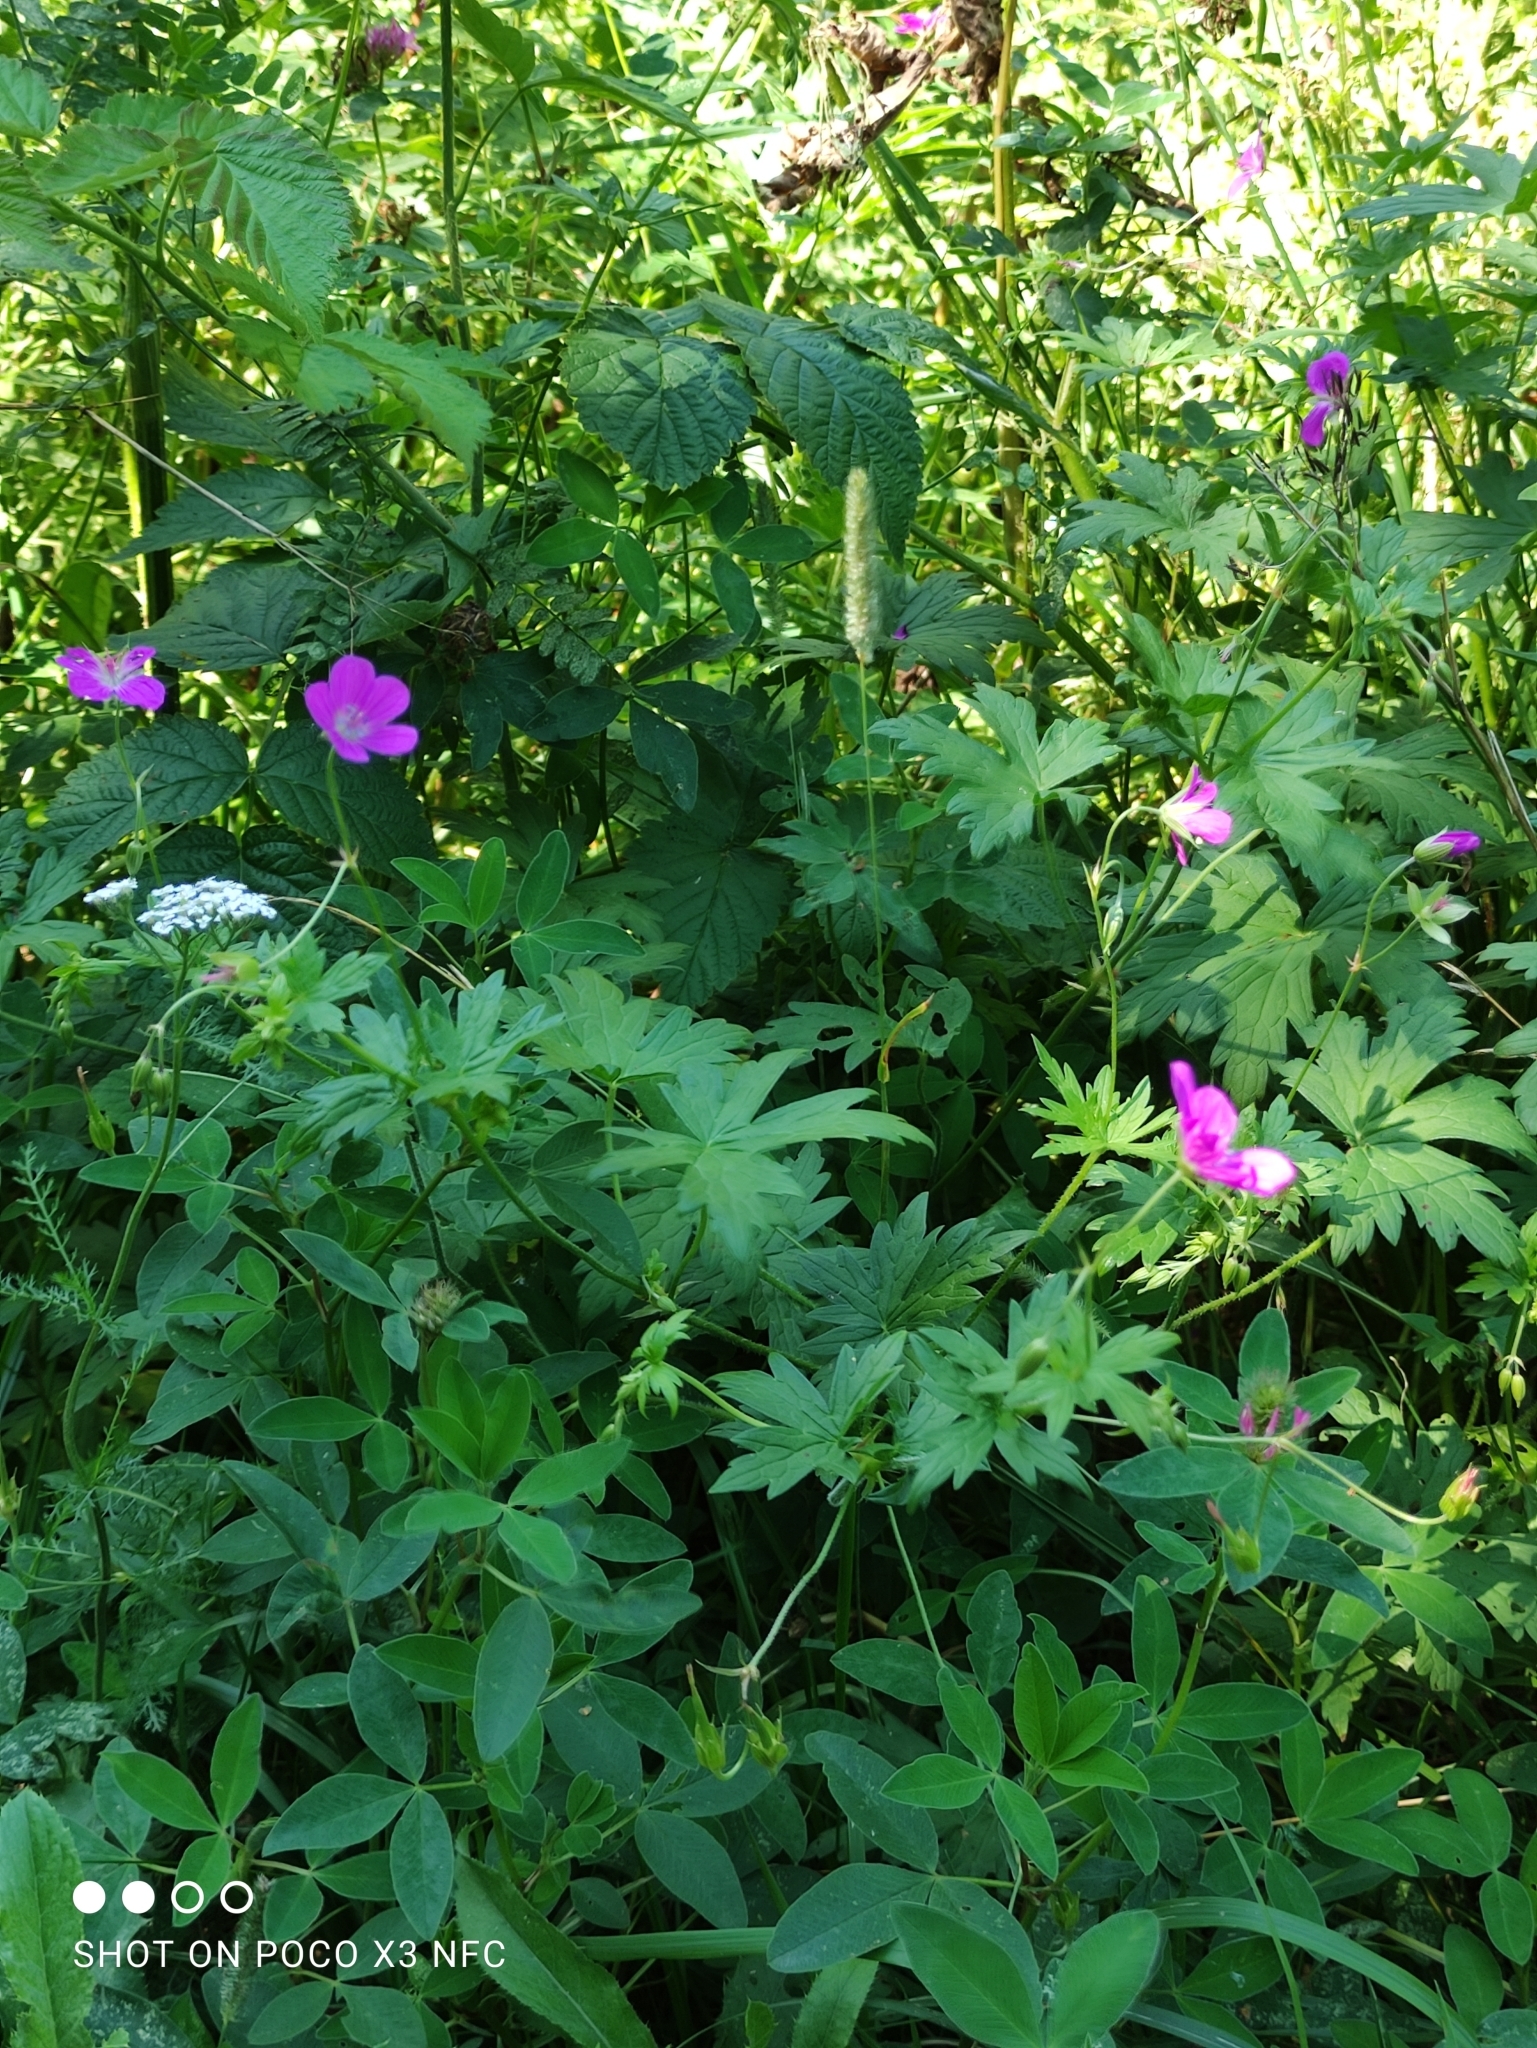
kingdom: Plantae
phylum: Tracheophyta
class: Magnoliopsida
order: Geraniales
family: Geraniaceae
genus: Geranium
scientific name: Geranium palustre
